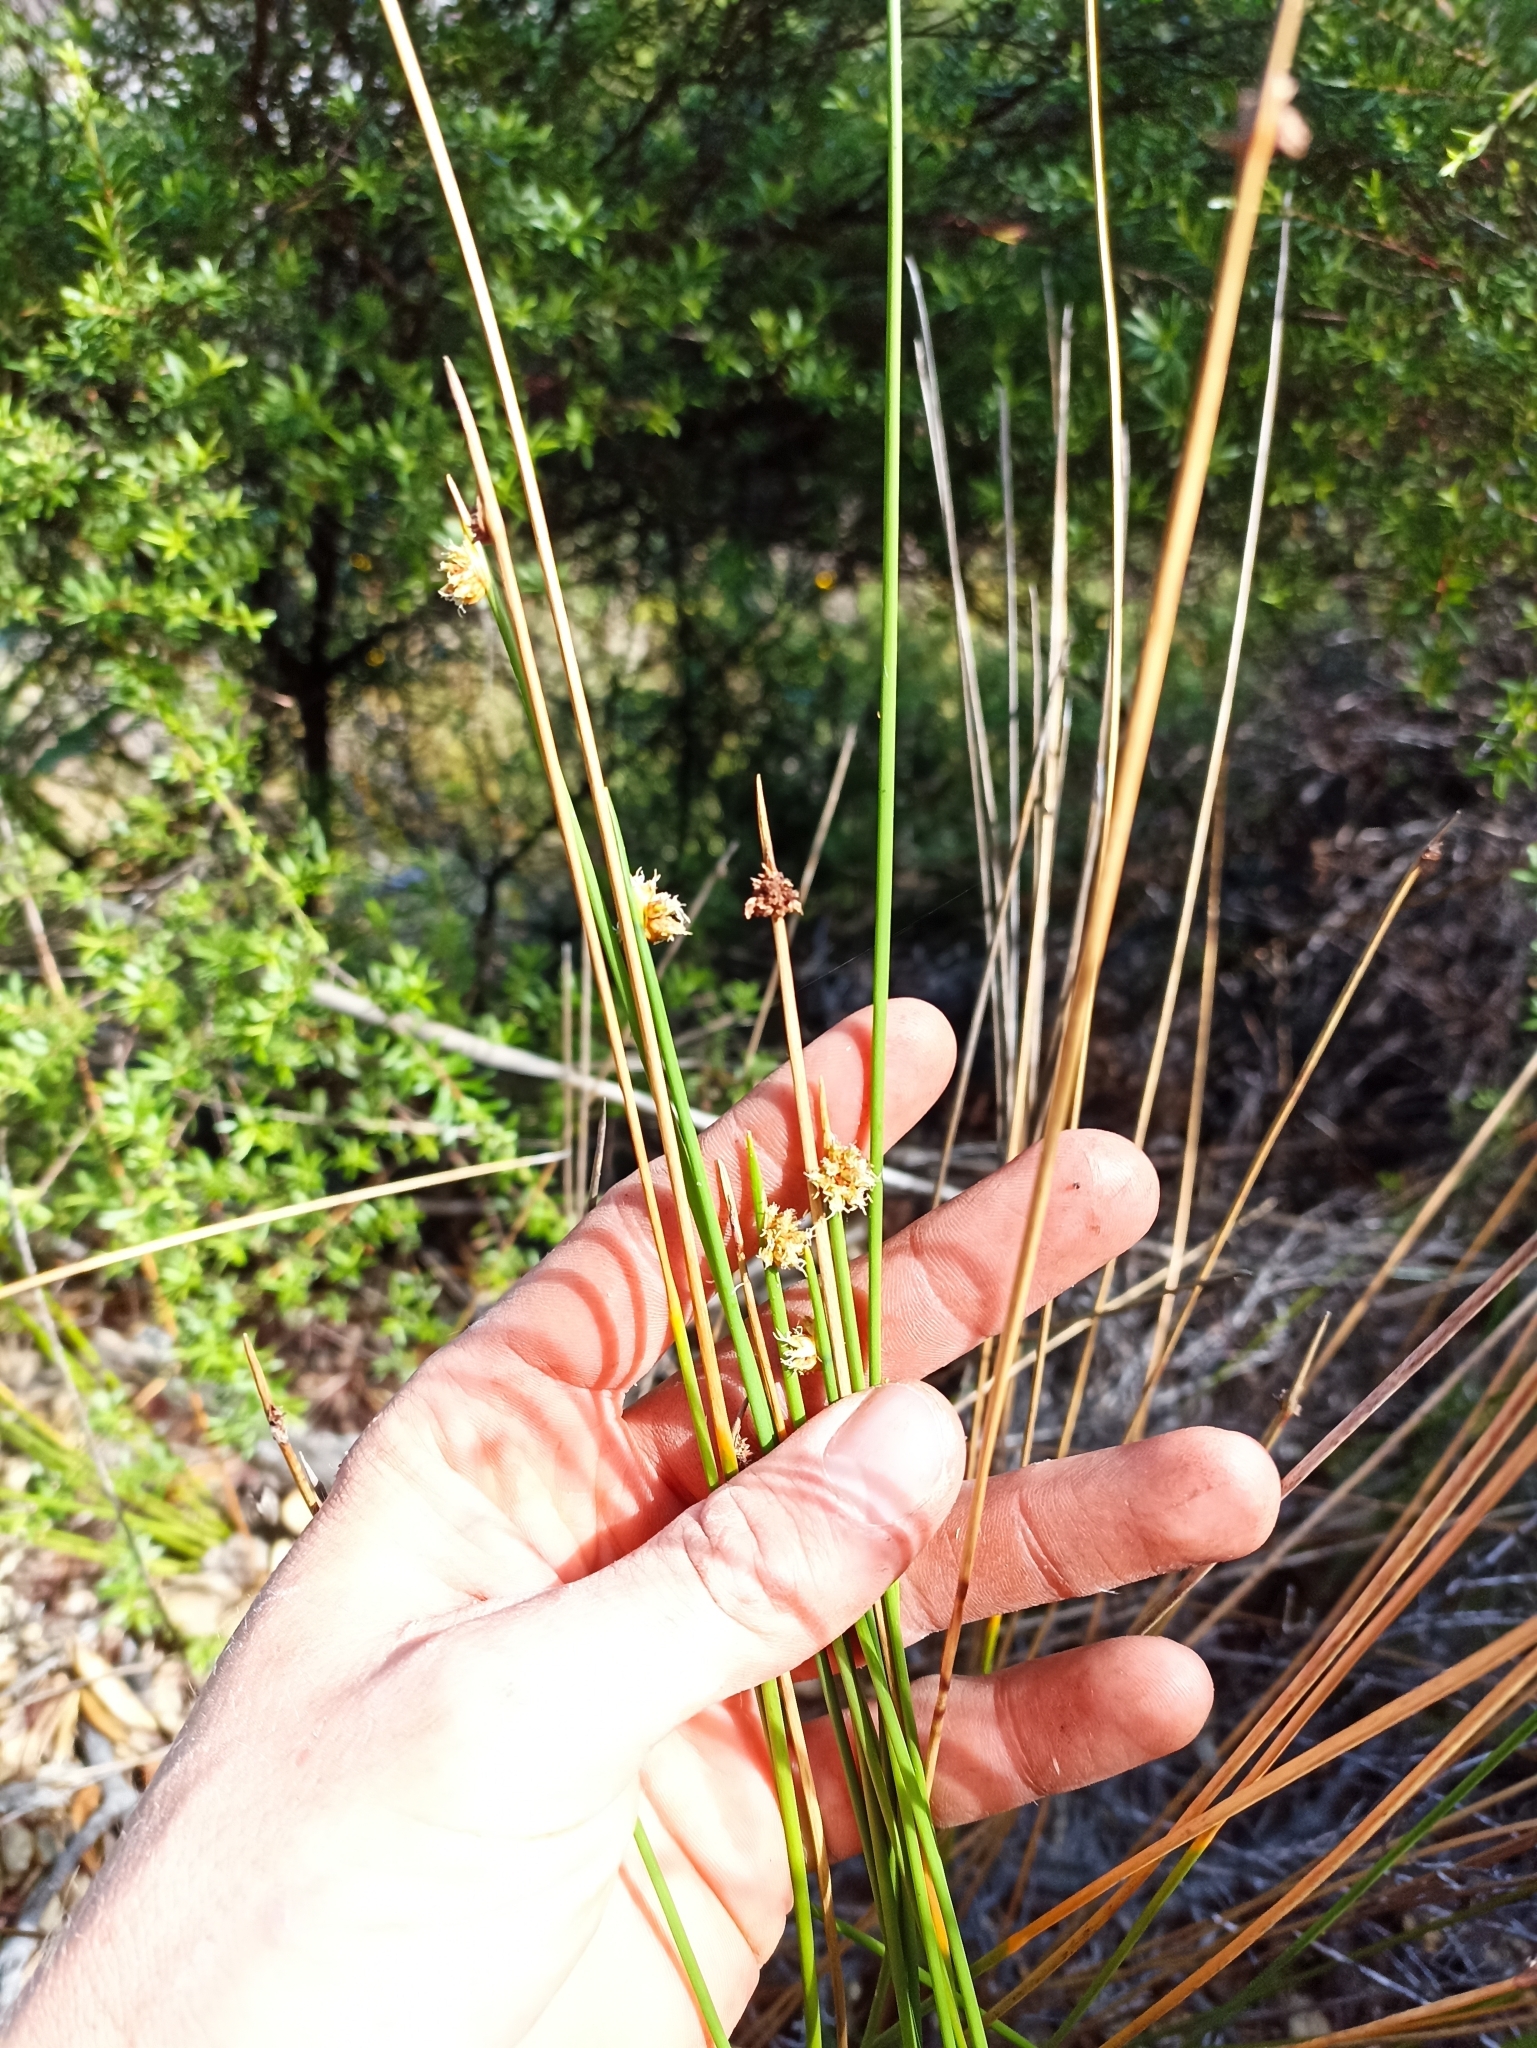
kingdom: Plantae
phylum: Tracheophyta
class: Liliopsida
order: Poales
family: Cyperaceae
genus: Ficinia
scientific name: Ficinia nodosa
